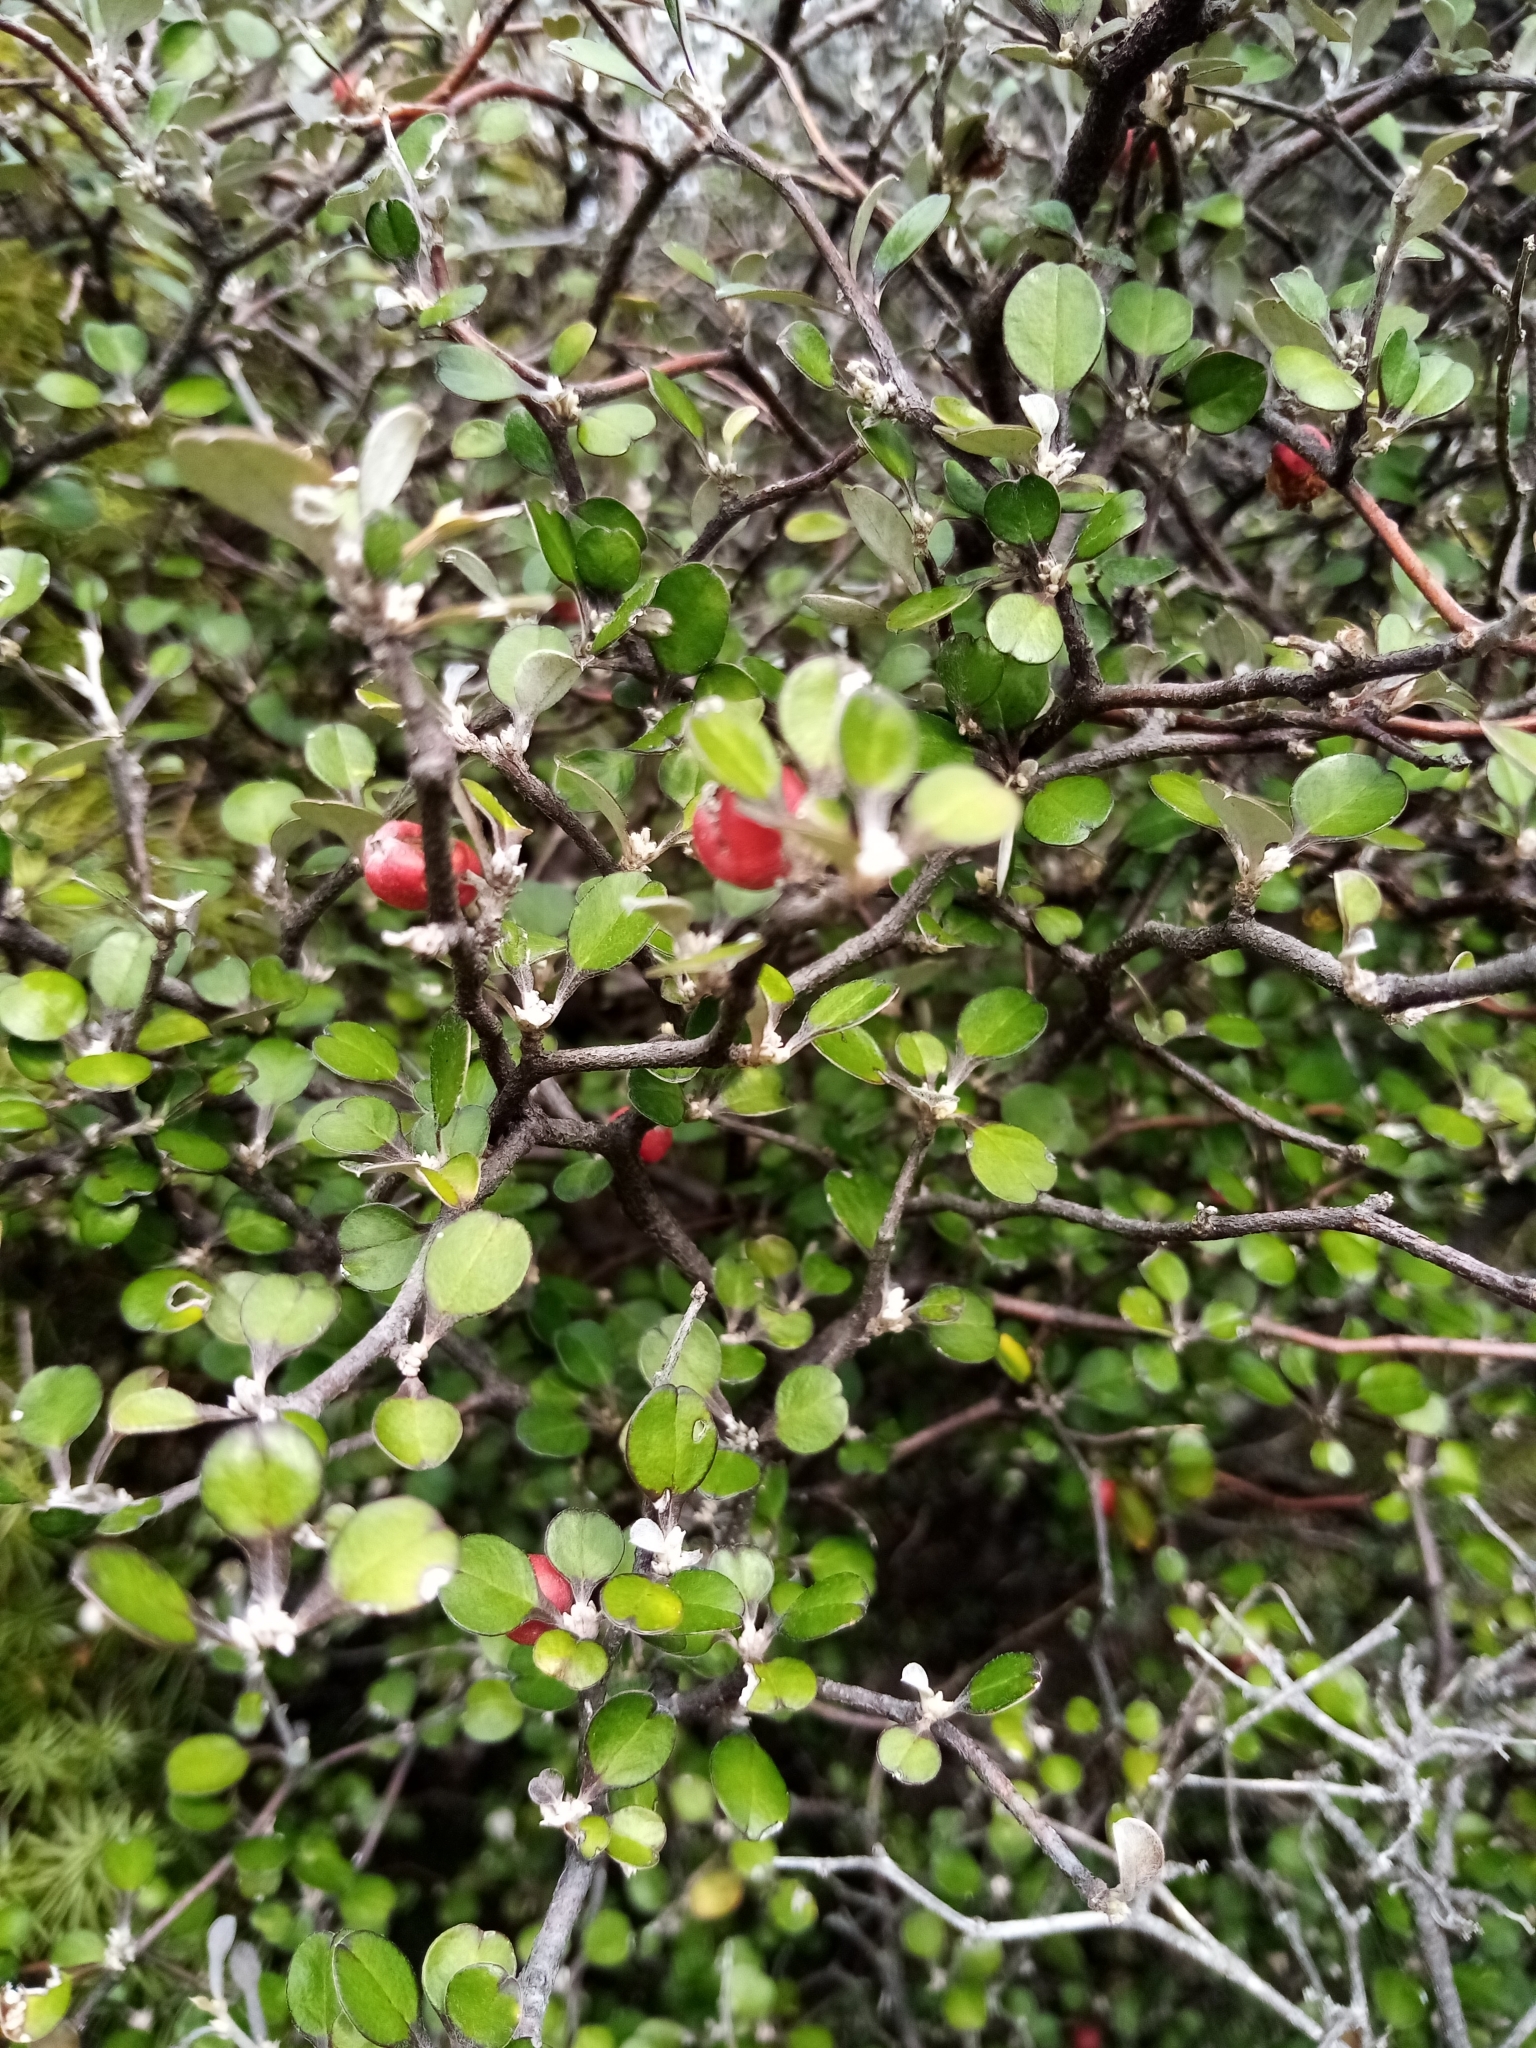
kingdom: Plantae
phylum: Tracheophyta
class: Magnoliopsida
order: Asterales
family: Argophyllaceae
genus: Corokia
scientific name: Corokia cotoneaster
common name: Wire nettingbush
